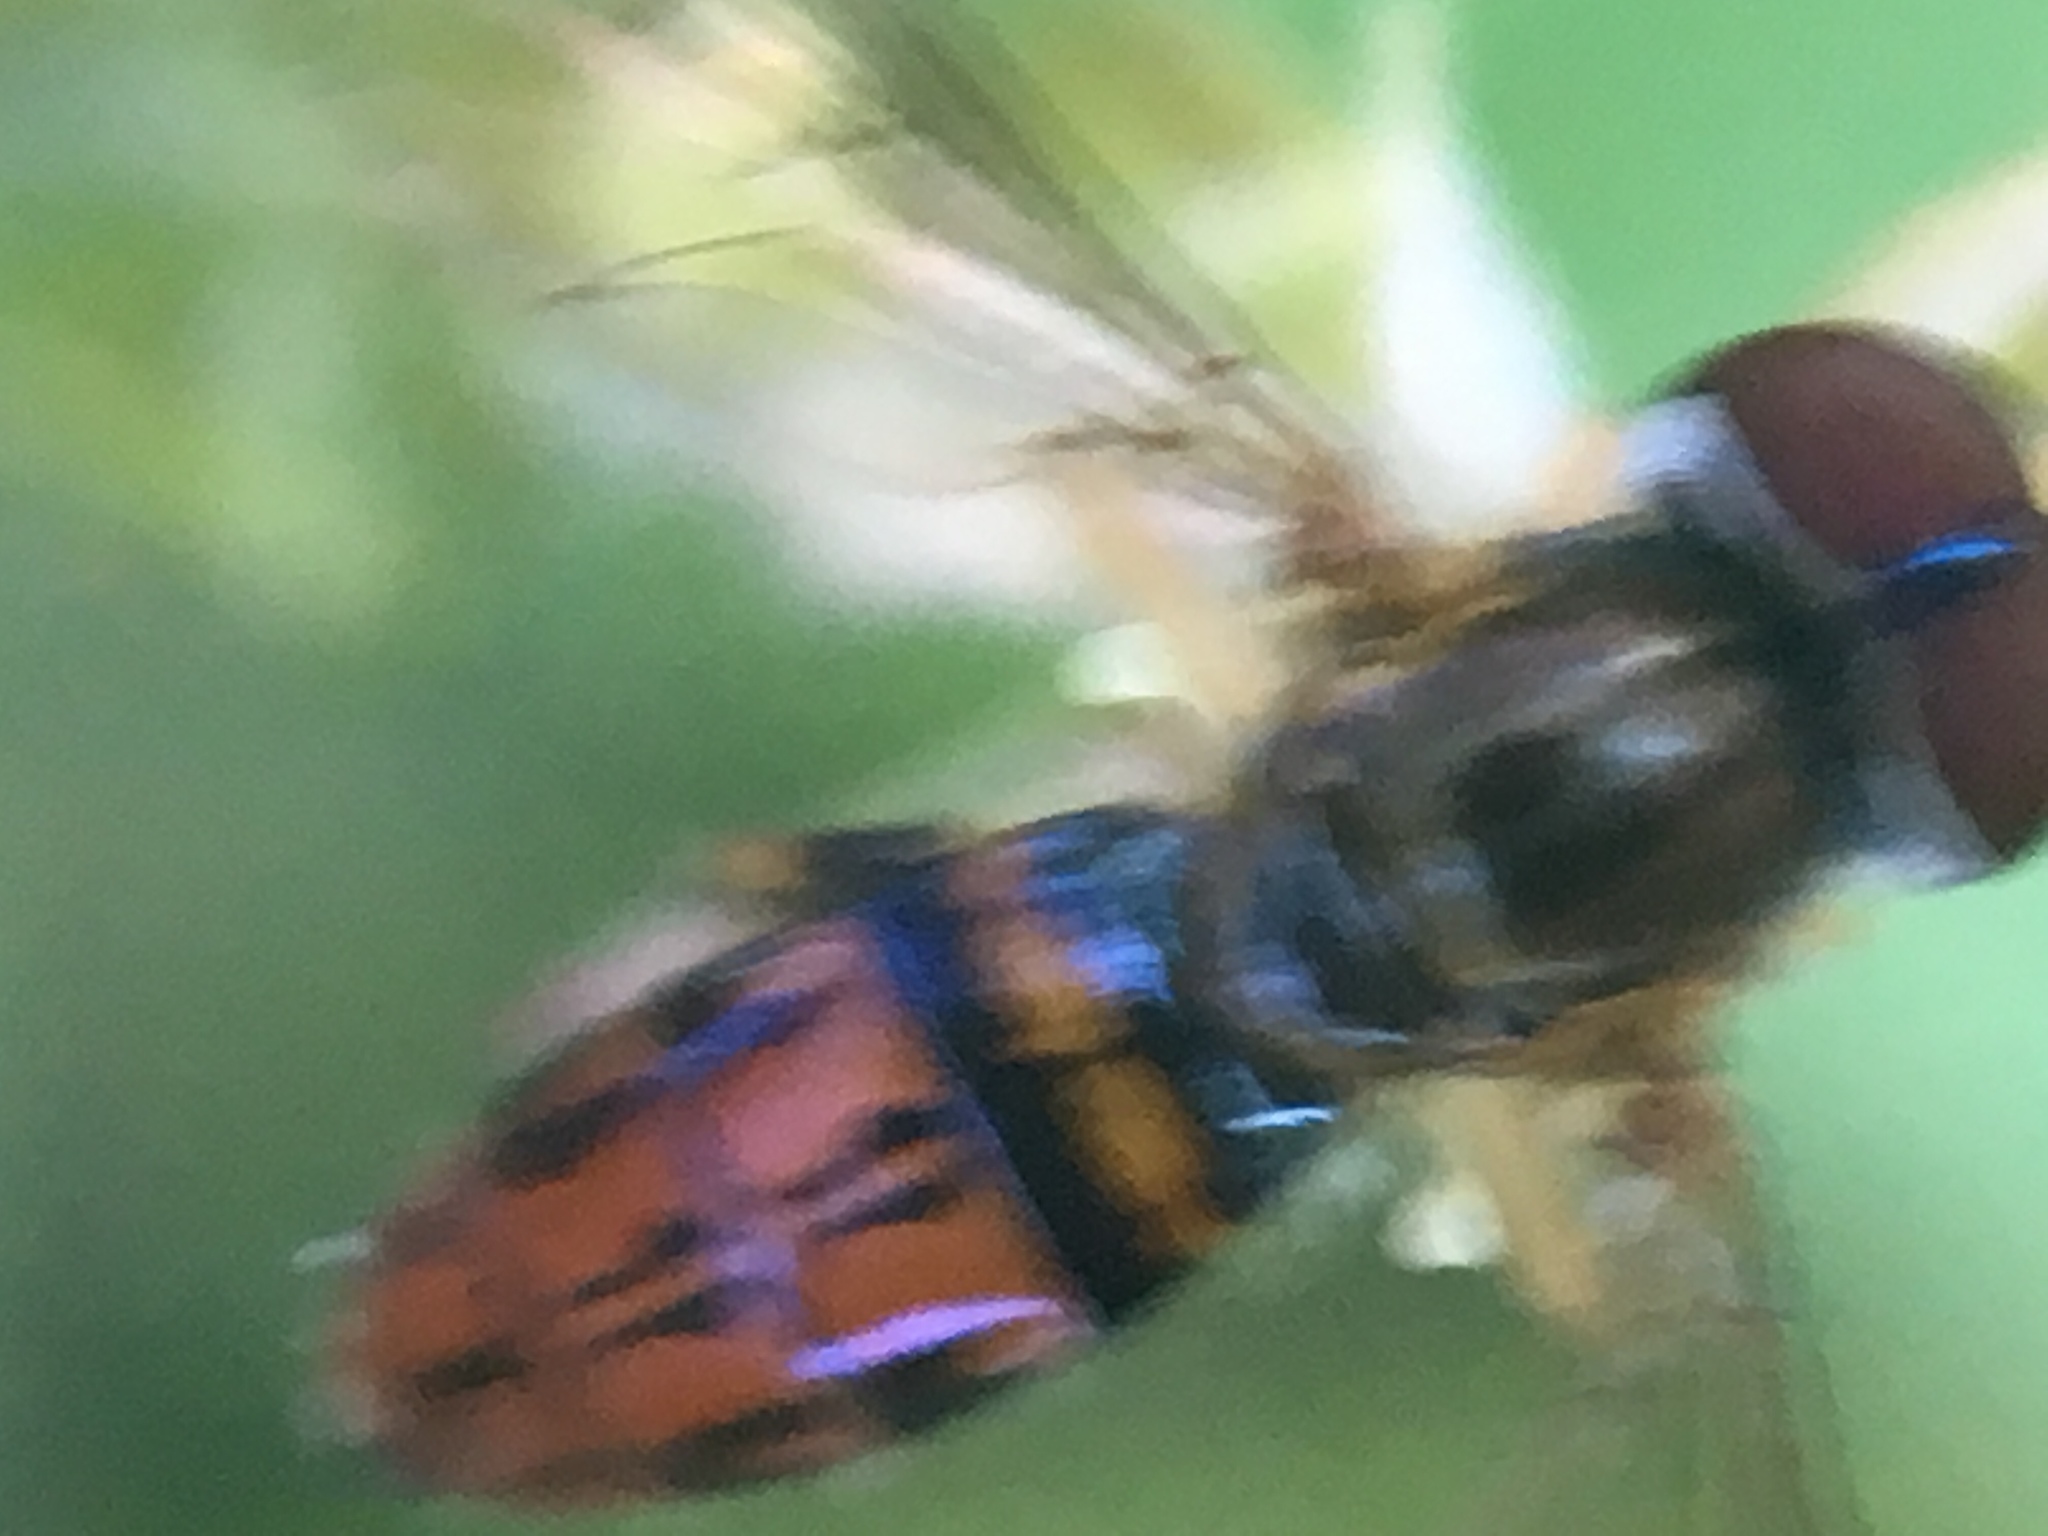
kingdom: Animalia
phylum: Arthropoda
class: Insecta
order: Diptera
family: Syrphidae
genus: Toxomerus
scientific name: Toxomerus boscii
